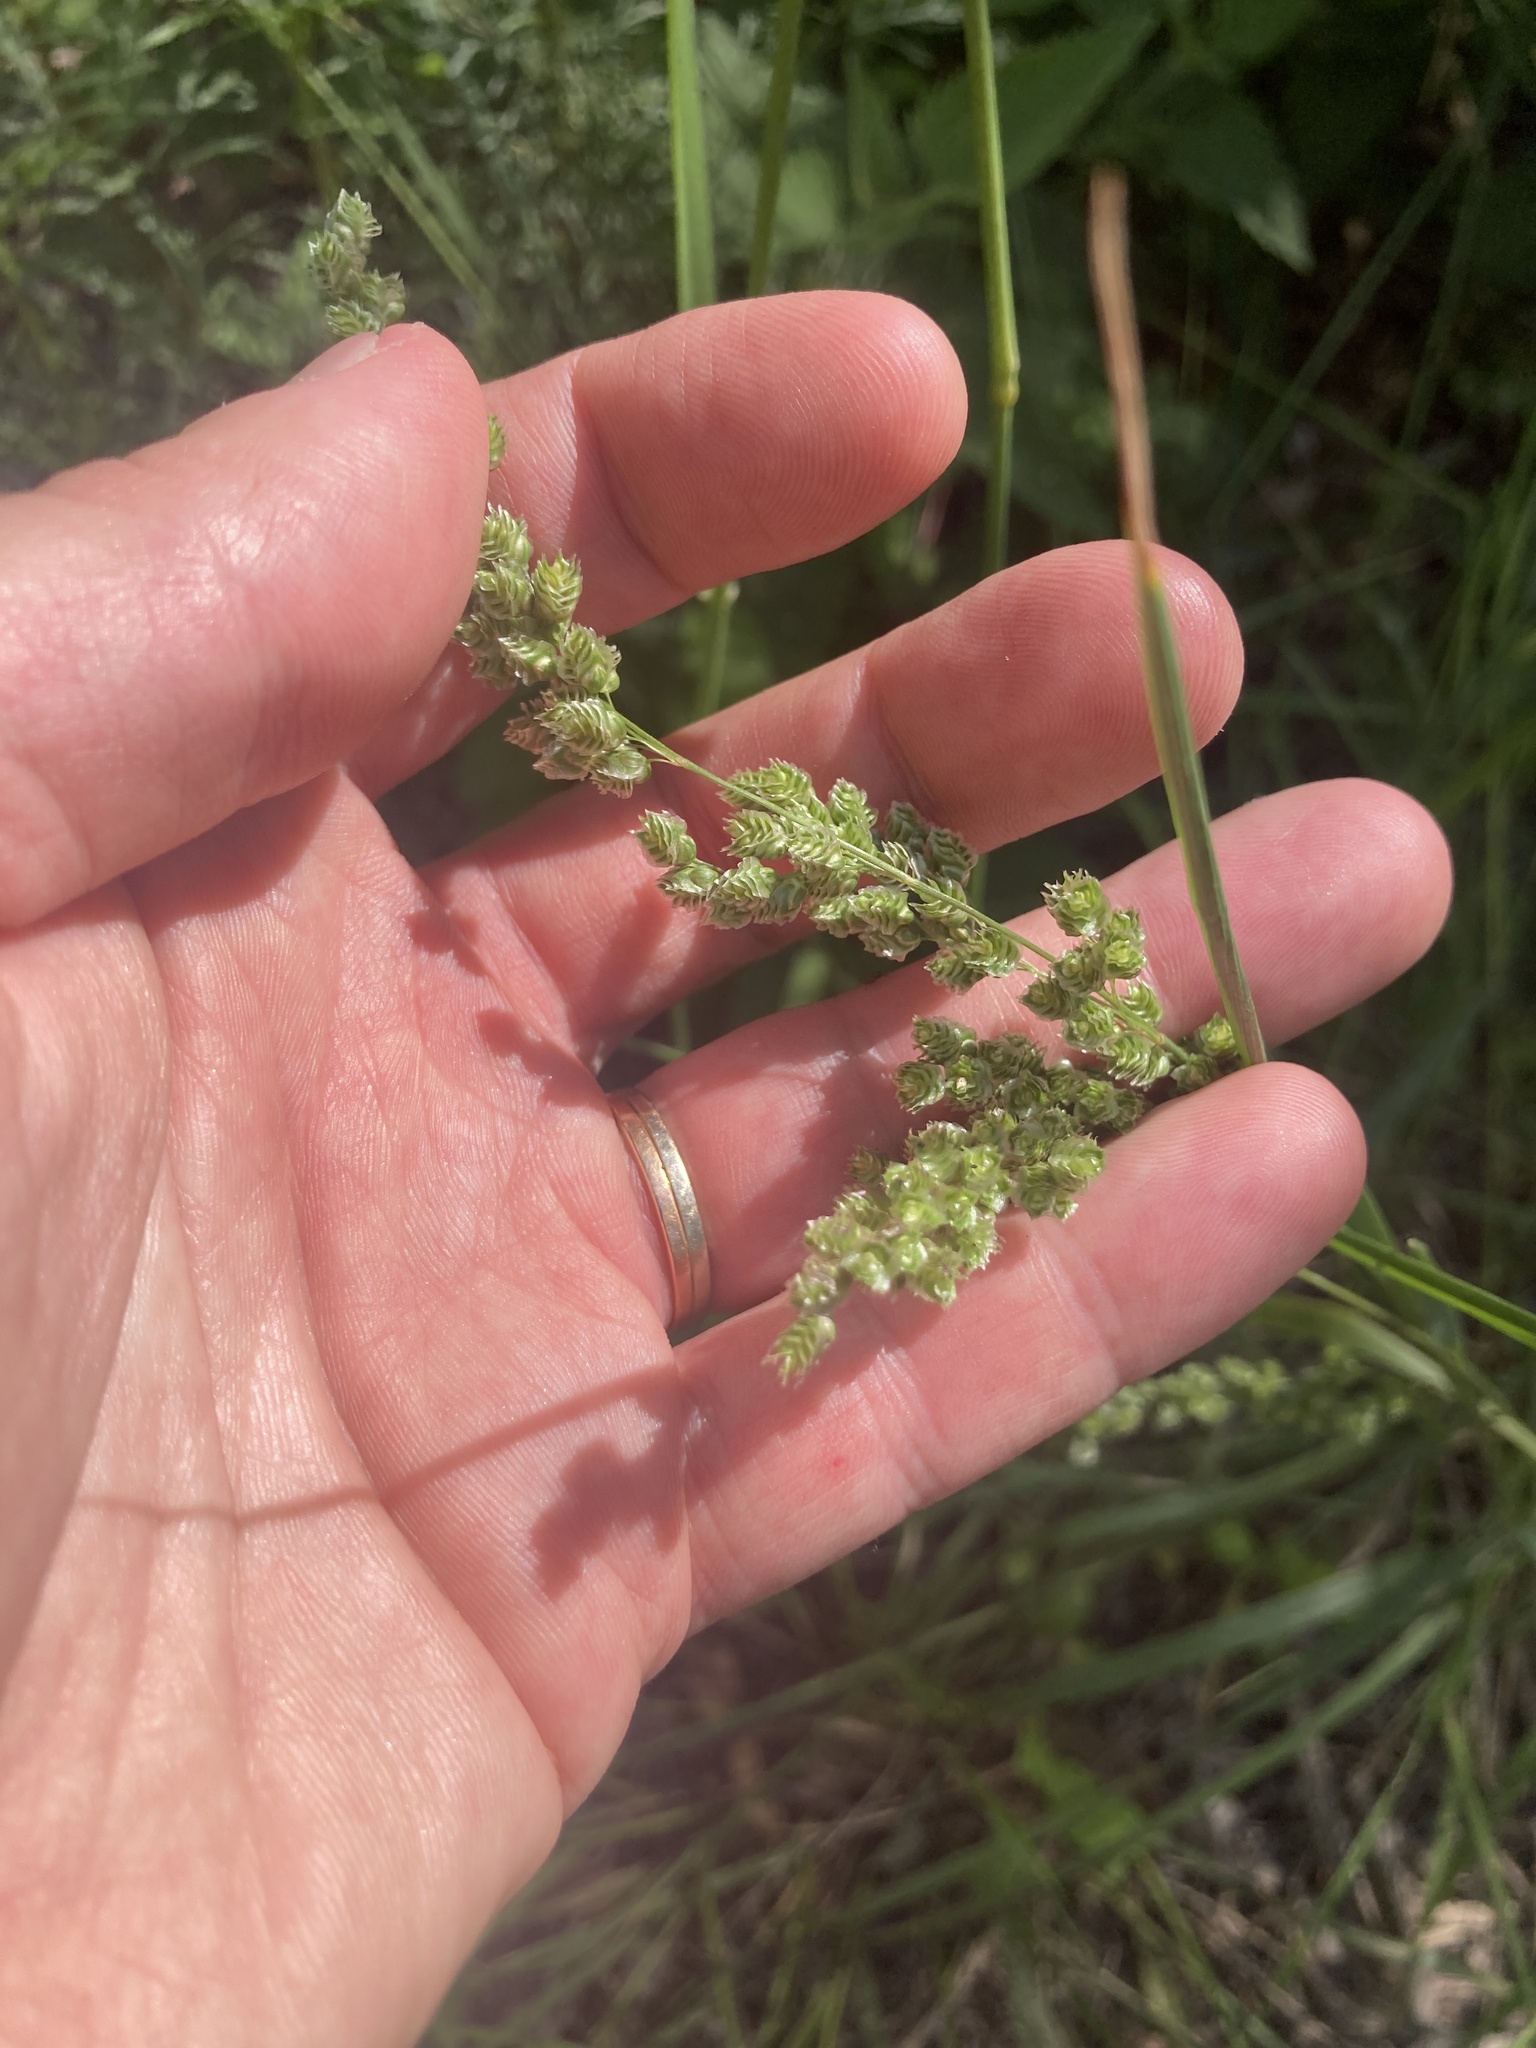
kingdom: Plantae
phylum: Tracheophyta
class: Liliopsida
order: Poales
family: Poaceae
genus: Chascolytrum
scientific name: Chascolytrum subaristatum
